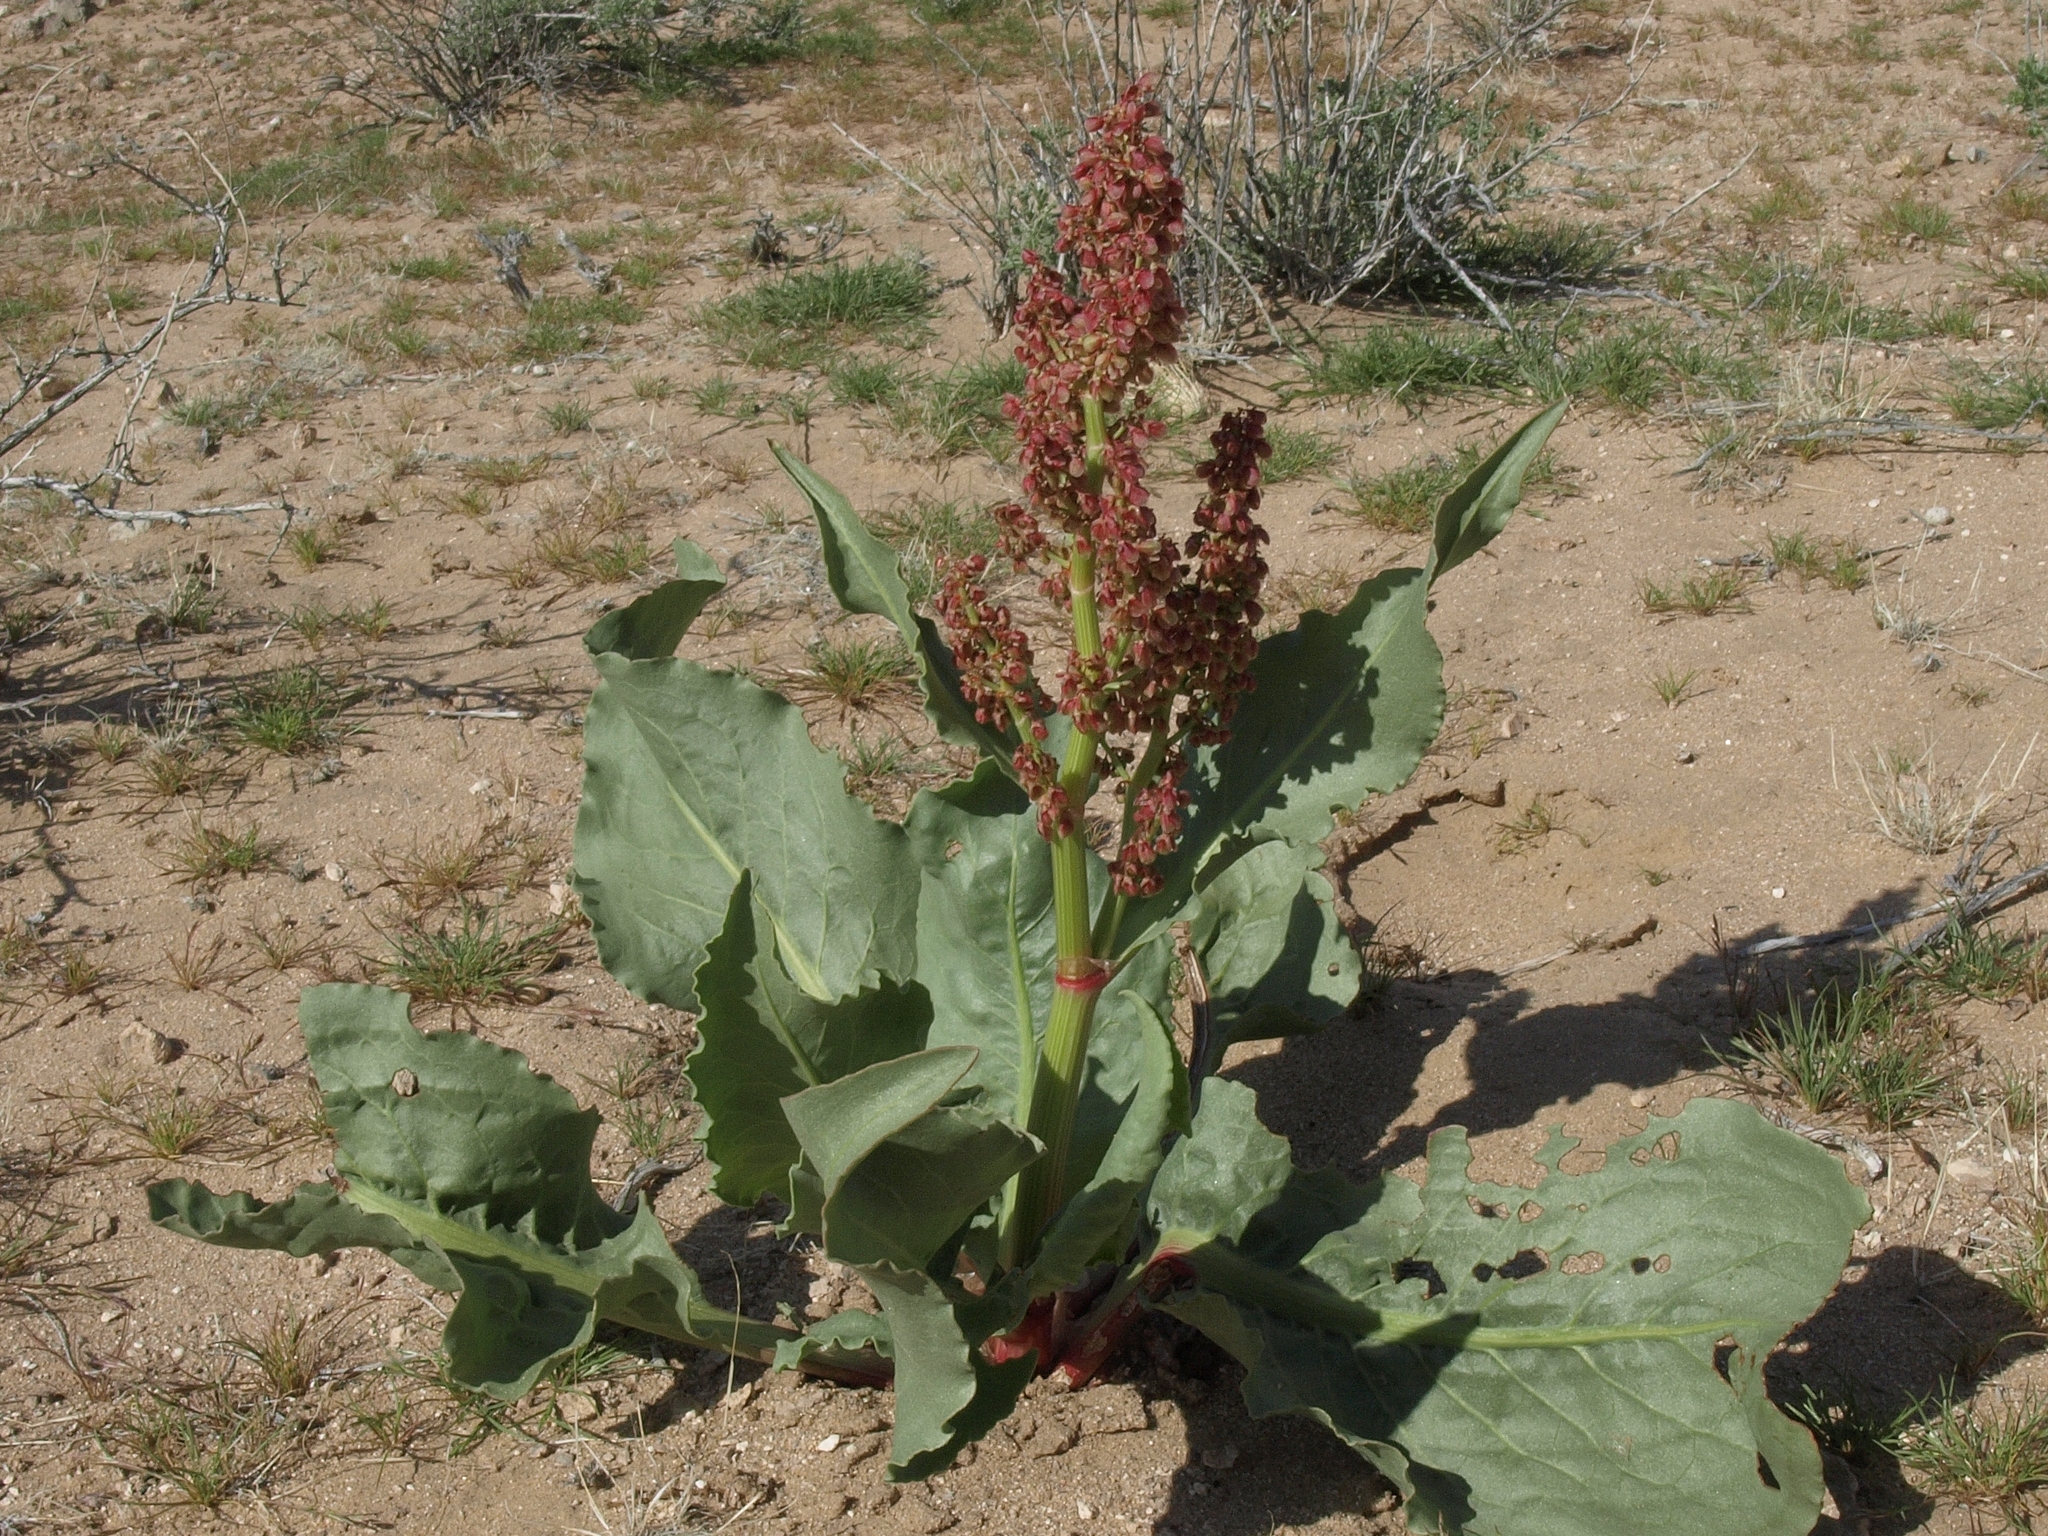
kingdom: Plantae
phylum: Tracheophyta
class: Magnoliopsida
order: Caryophyllales
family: Polygonaceae
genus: Rumex
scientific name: Rumex hymenosepalus
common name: Ganagra
